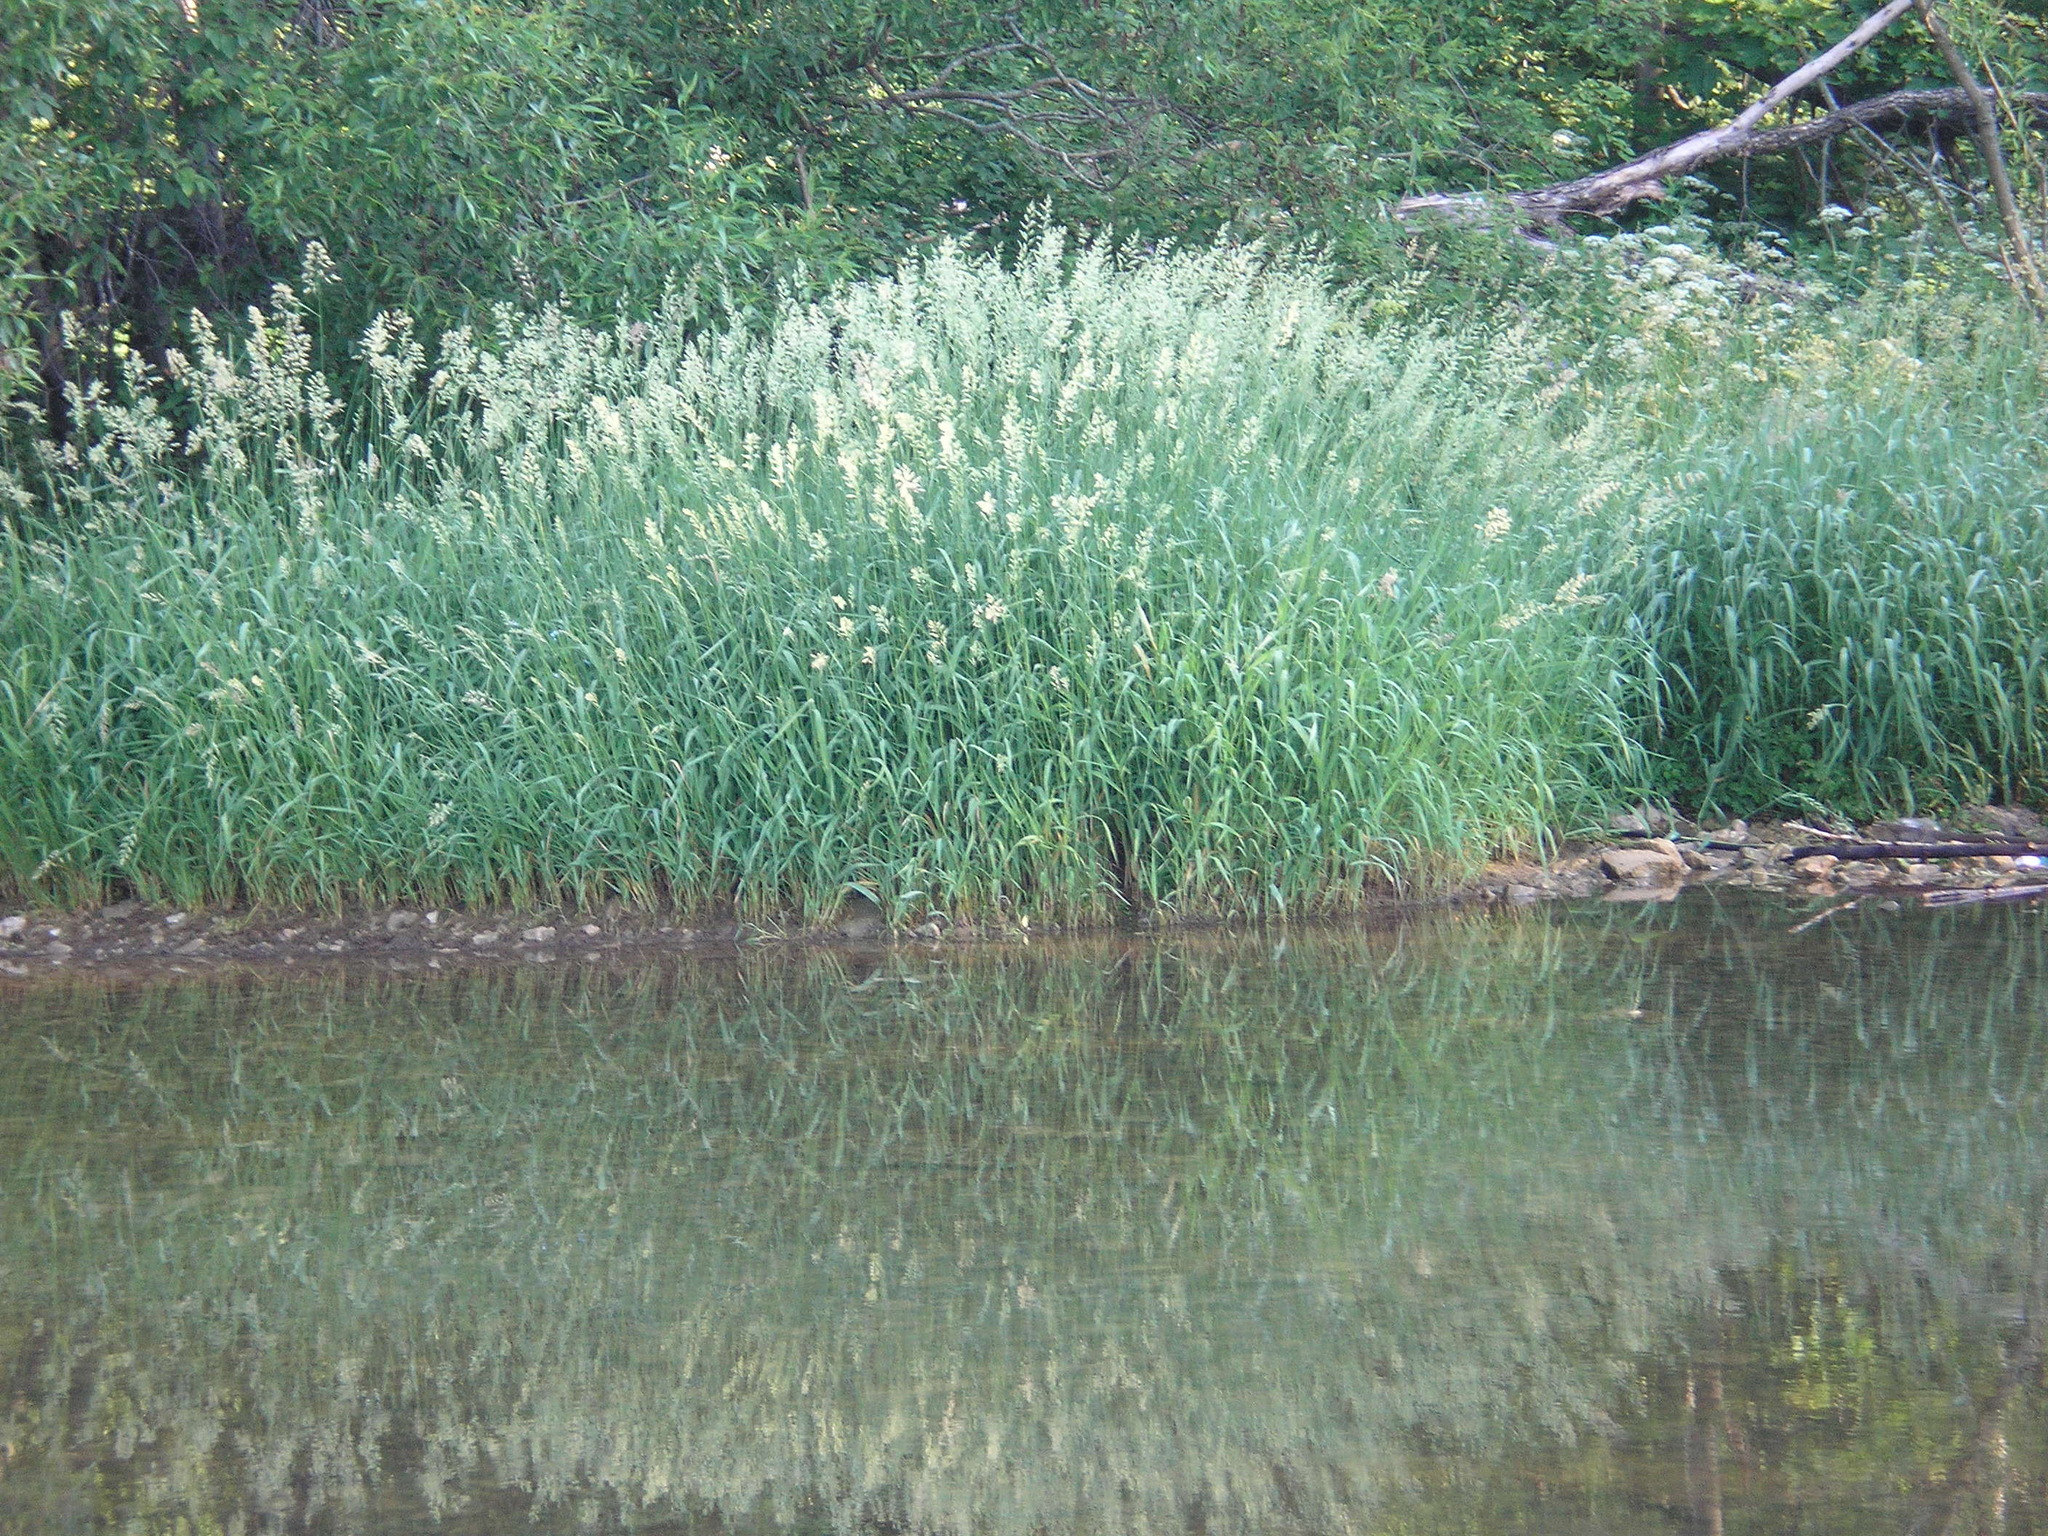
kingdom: Plantae
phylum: Tracheophyta
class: Liliopsida
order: Poales
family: Poaceae
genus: Phalaris
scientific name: Phalaris arundinacea
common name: Reed canary-grass
